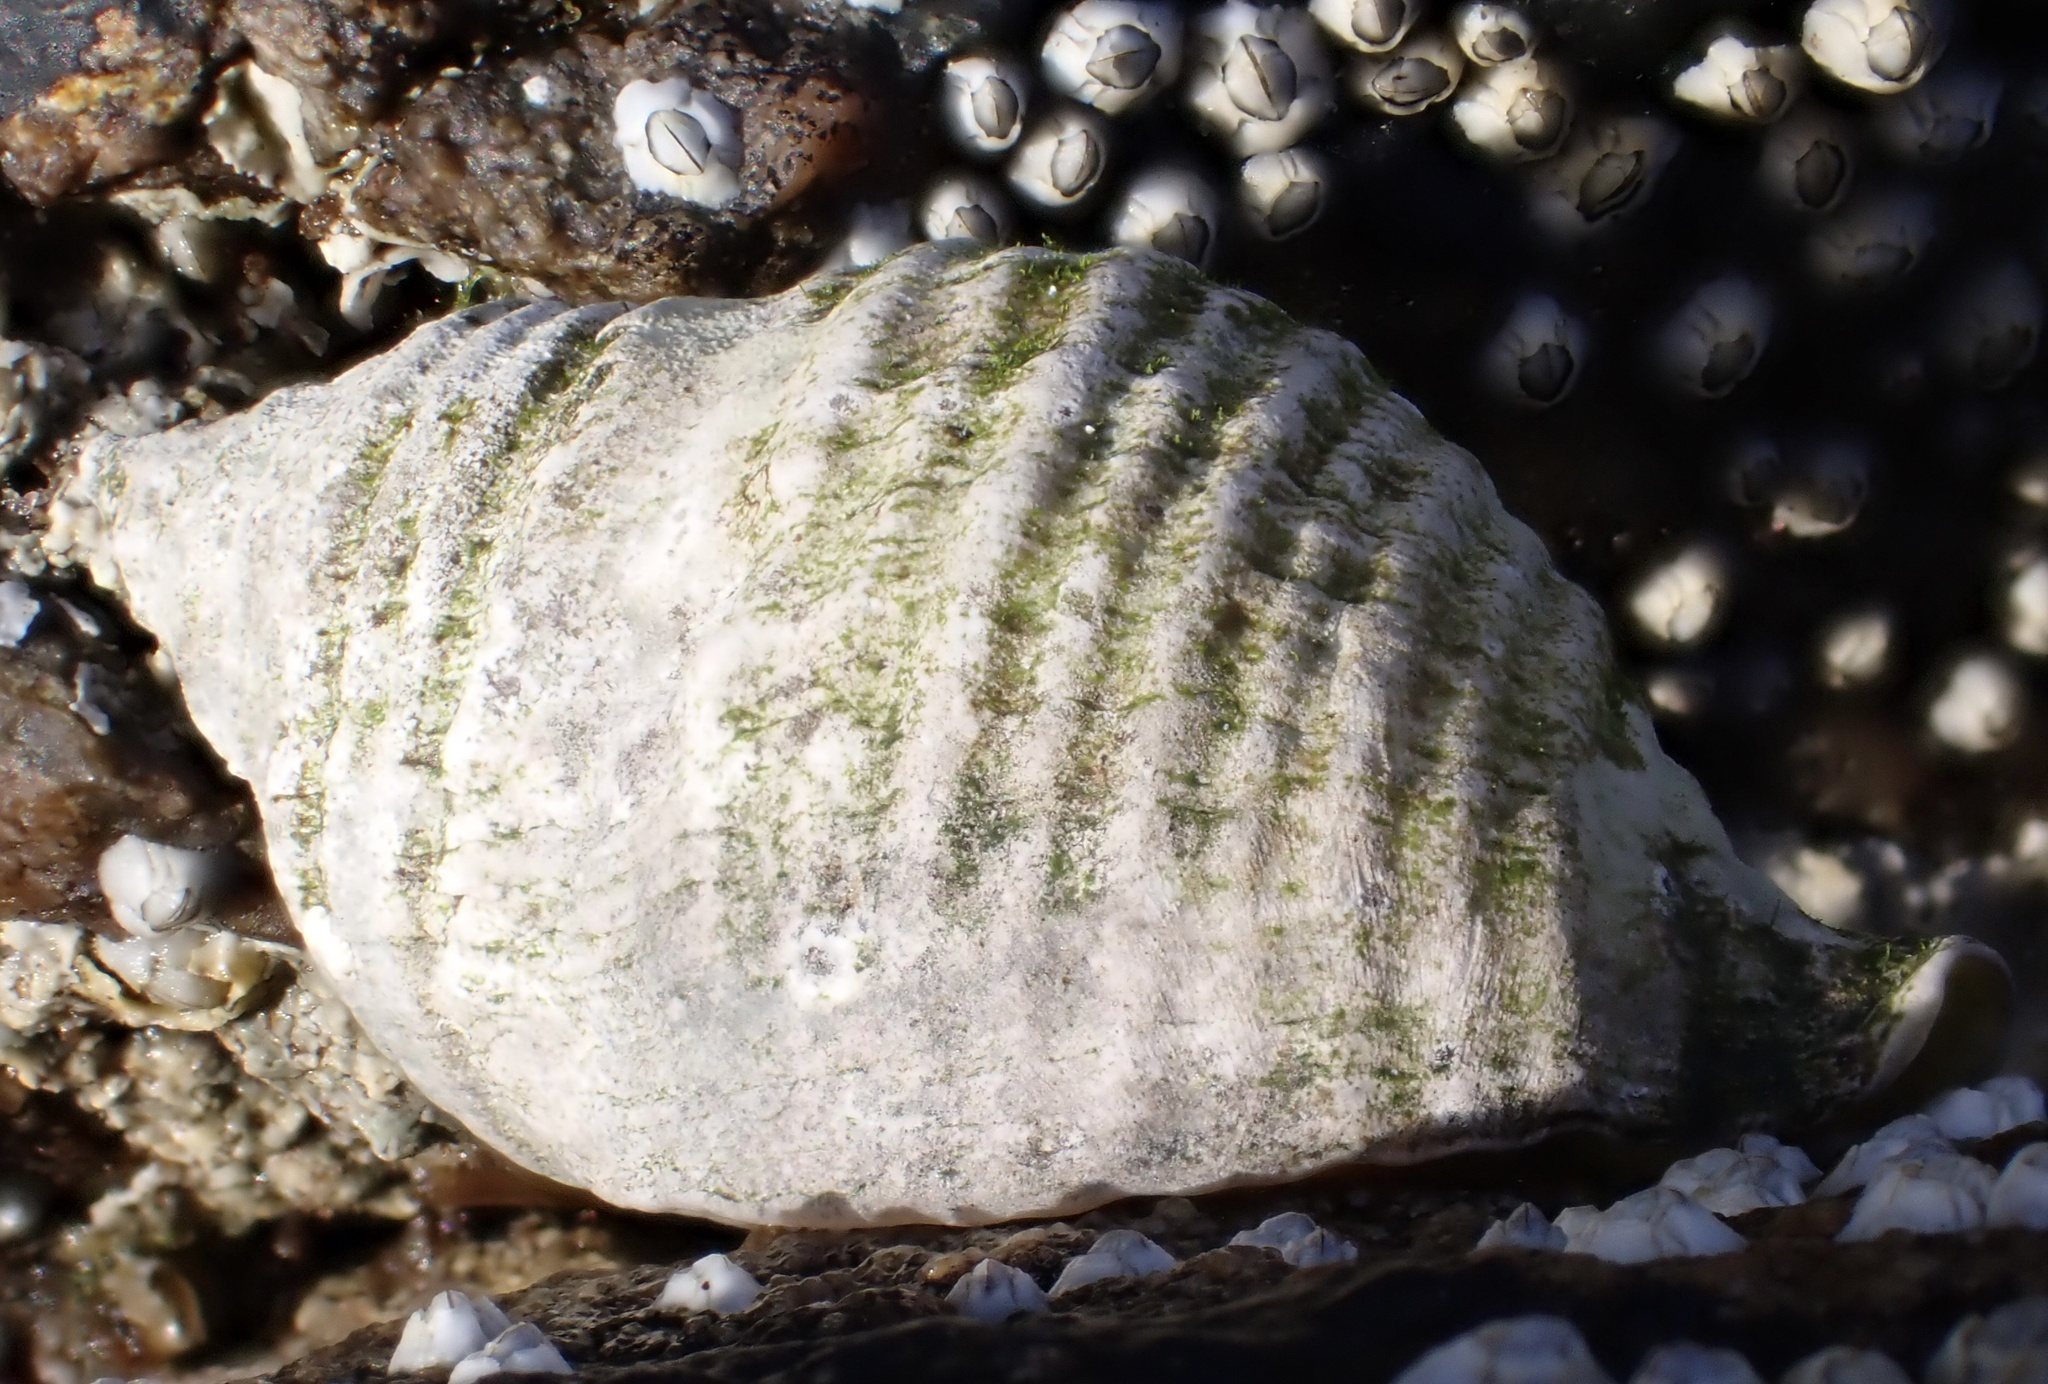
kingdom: Animalia
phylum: Mollusca
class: Gastropoda
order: Neogastropoda
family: Muricidae
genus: Nucella
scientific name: Nucella lapillus
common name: Dog whelk
